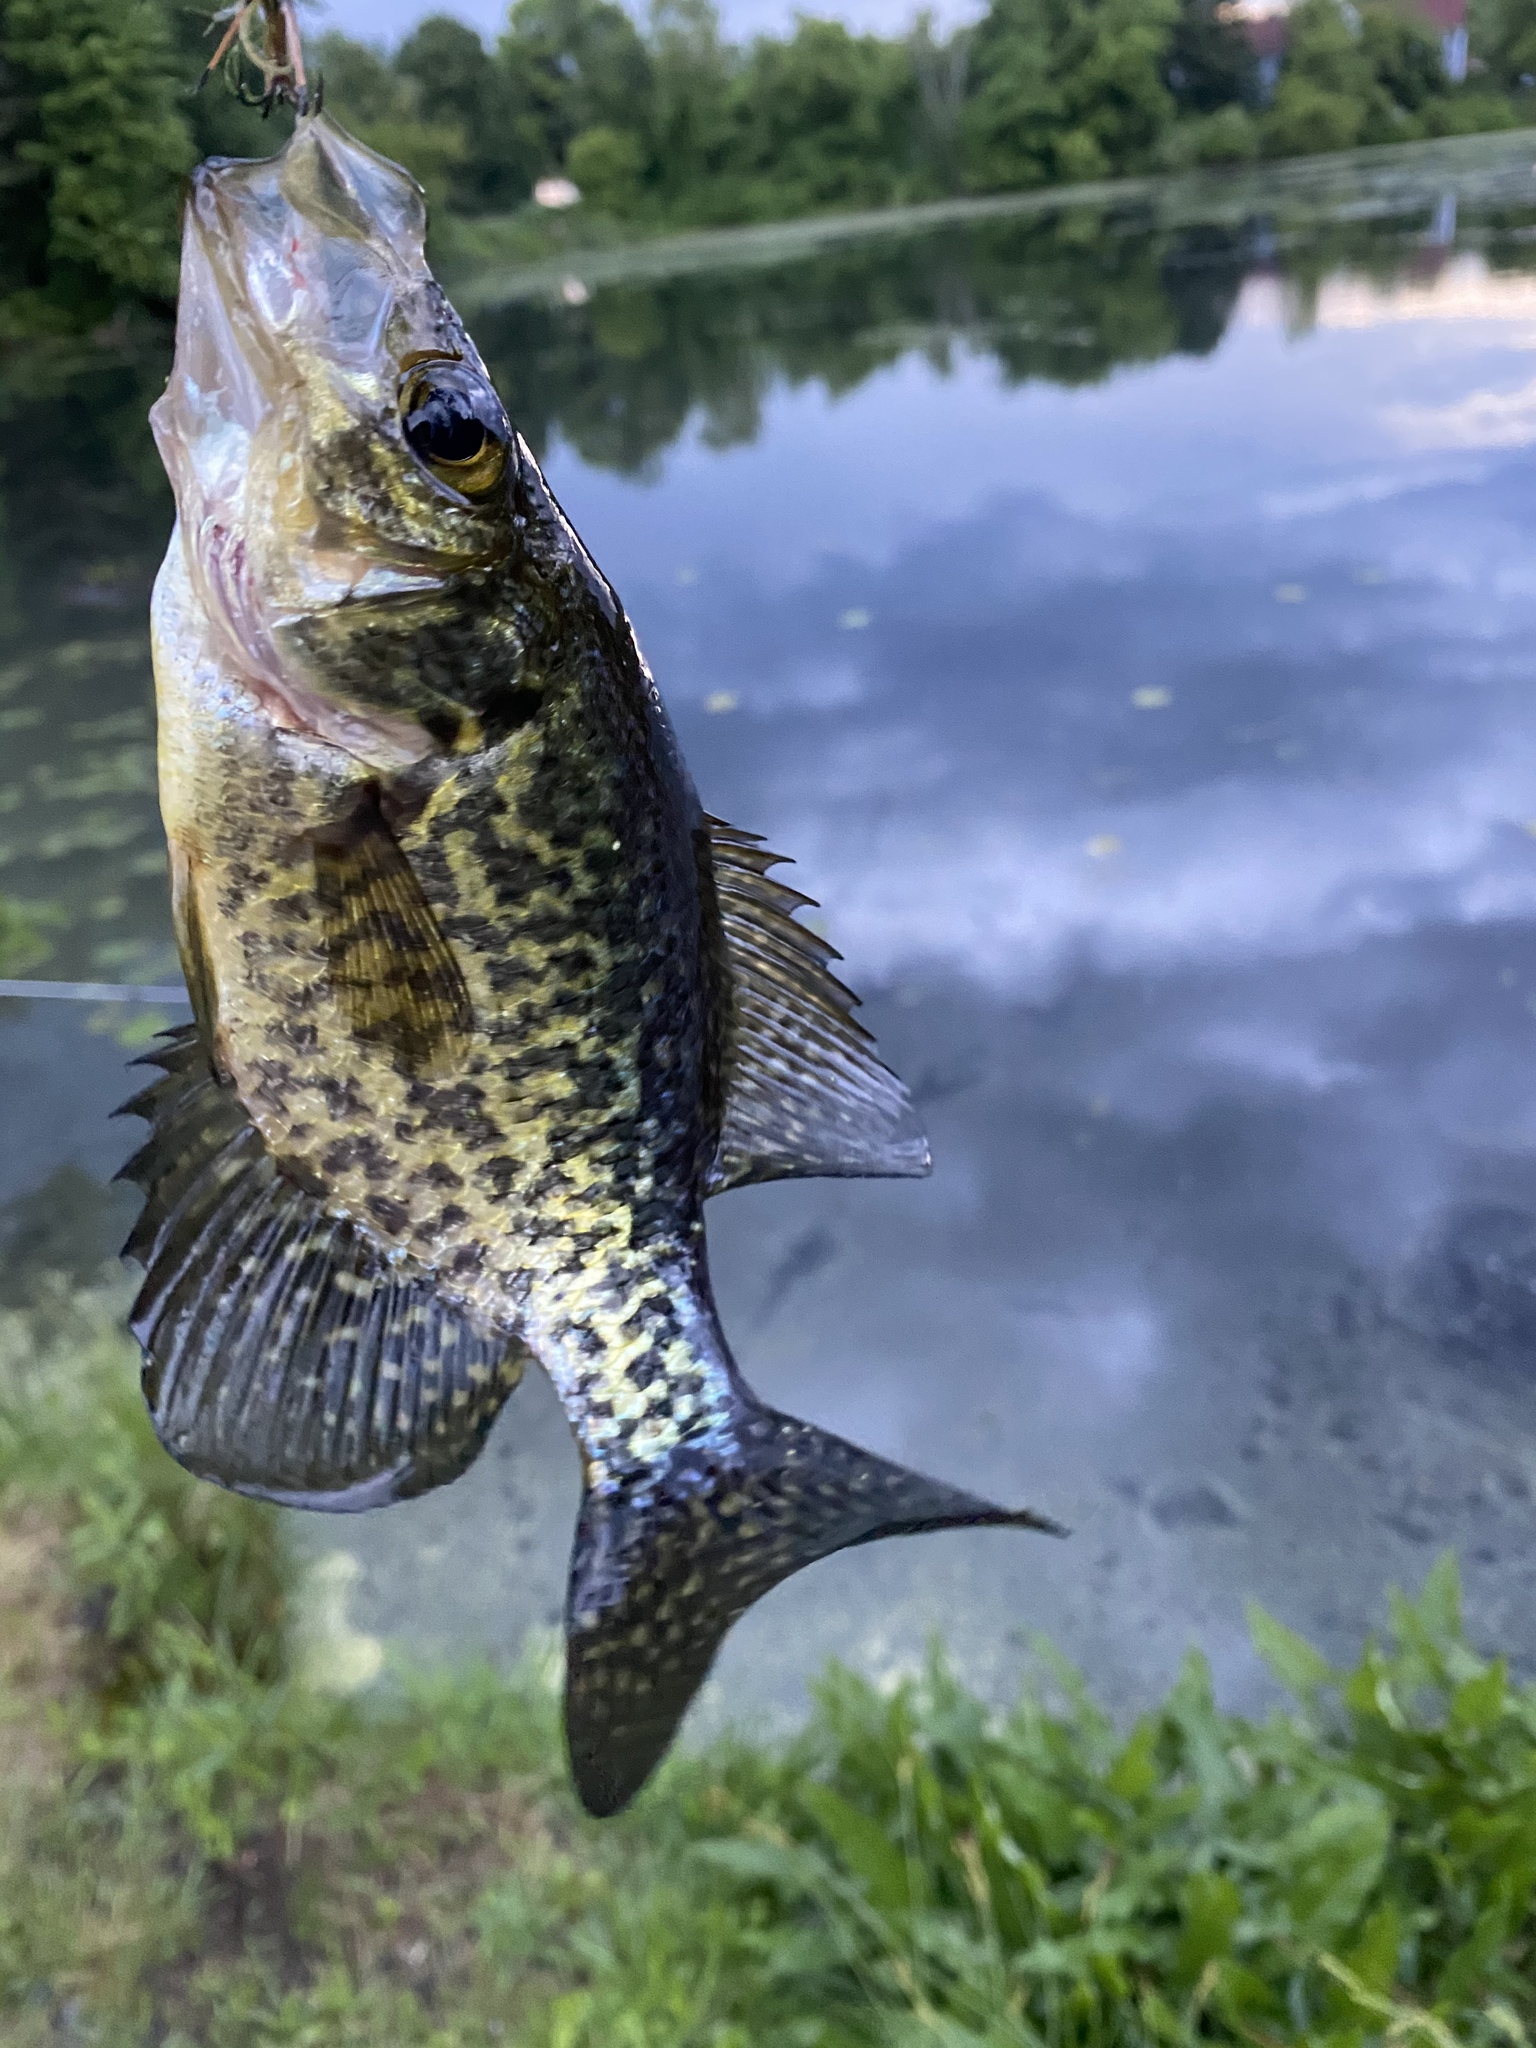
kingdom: Animalia
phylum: Chordata
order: Perciformes
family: Centrarchidae
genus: Pomoxis
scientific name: Pomoxis nigromaculatus
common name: Black crappie
